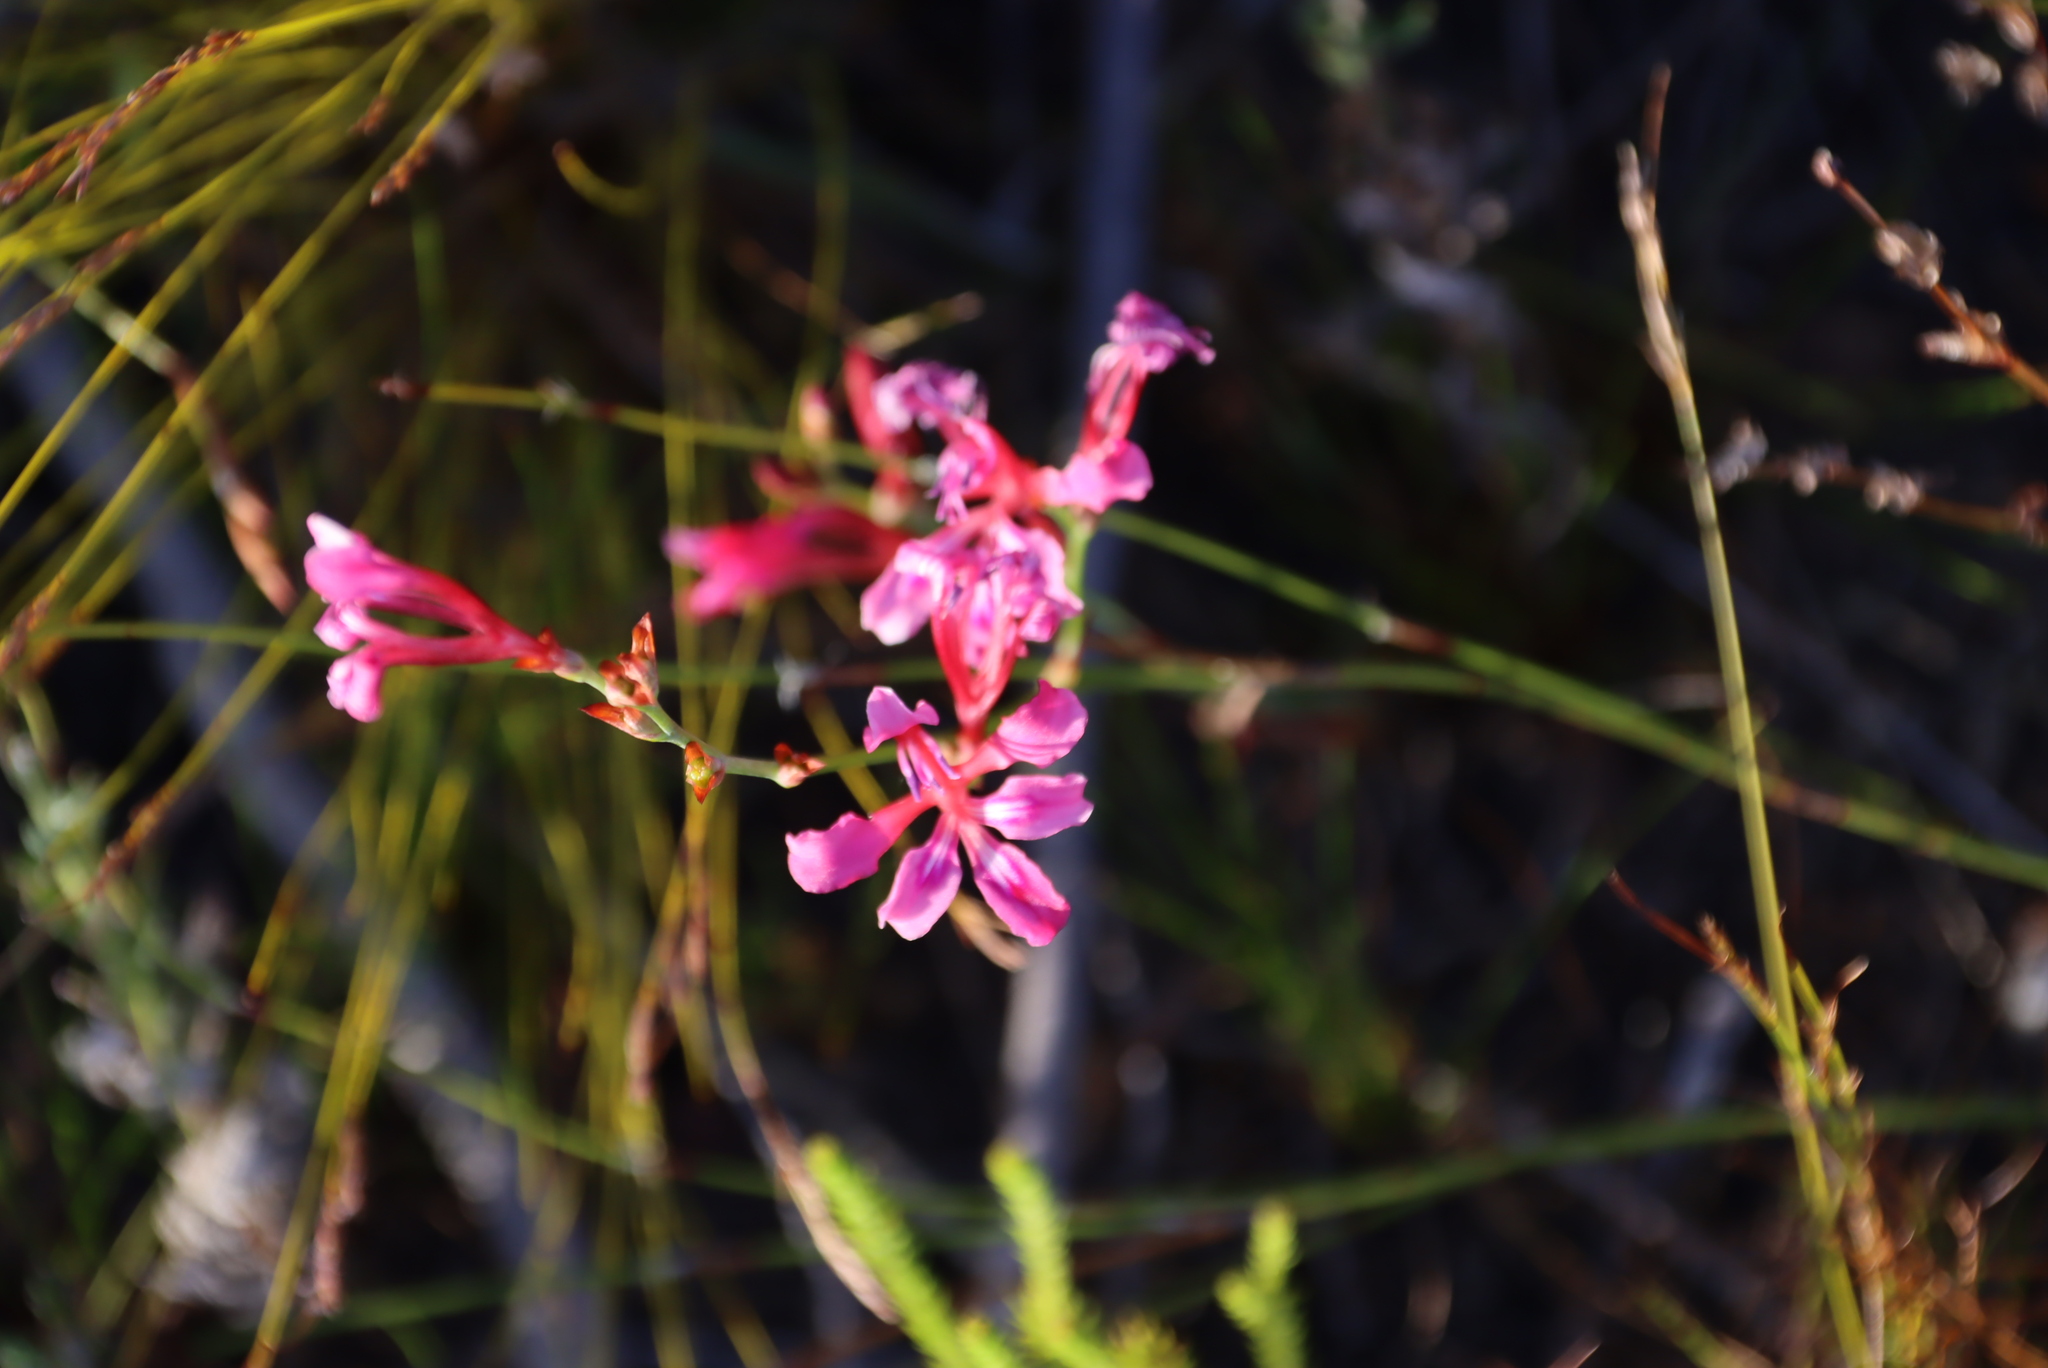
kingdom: Plantae
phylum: Tracheophyta
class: Liliopsida
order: Asparagales
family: Iridaceae
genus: Tritoniopsis
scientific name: Tritoniopsis lata
